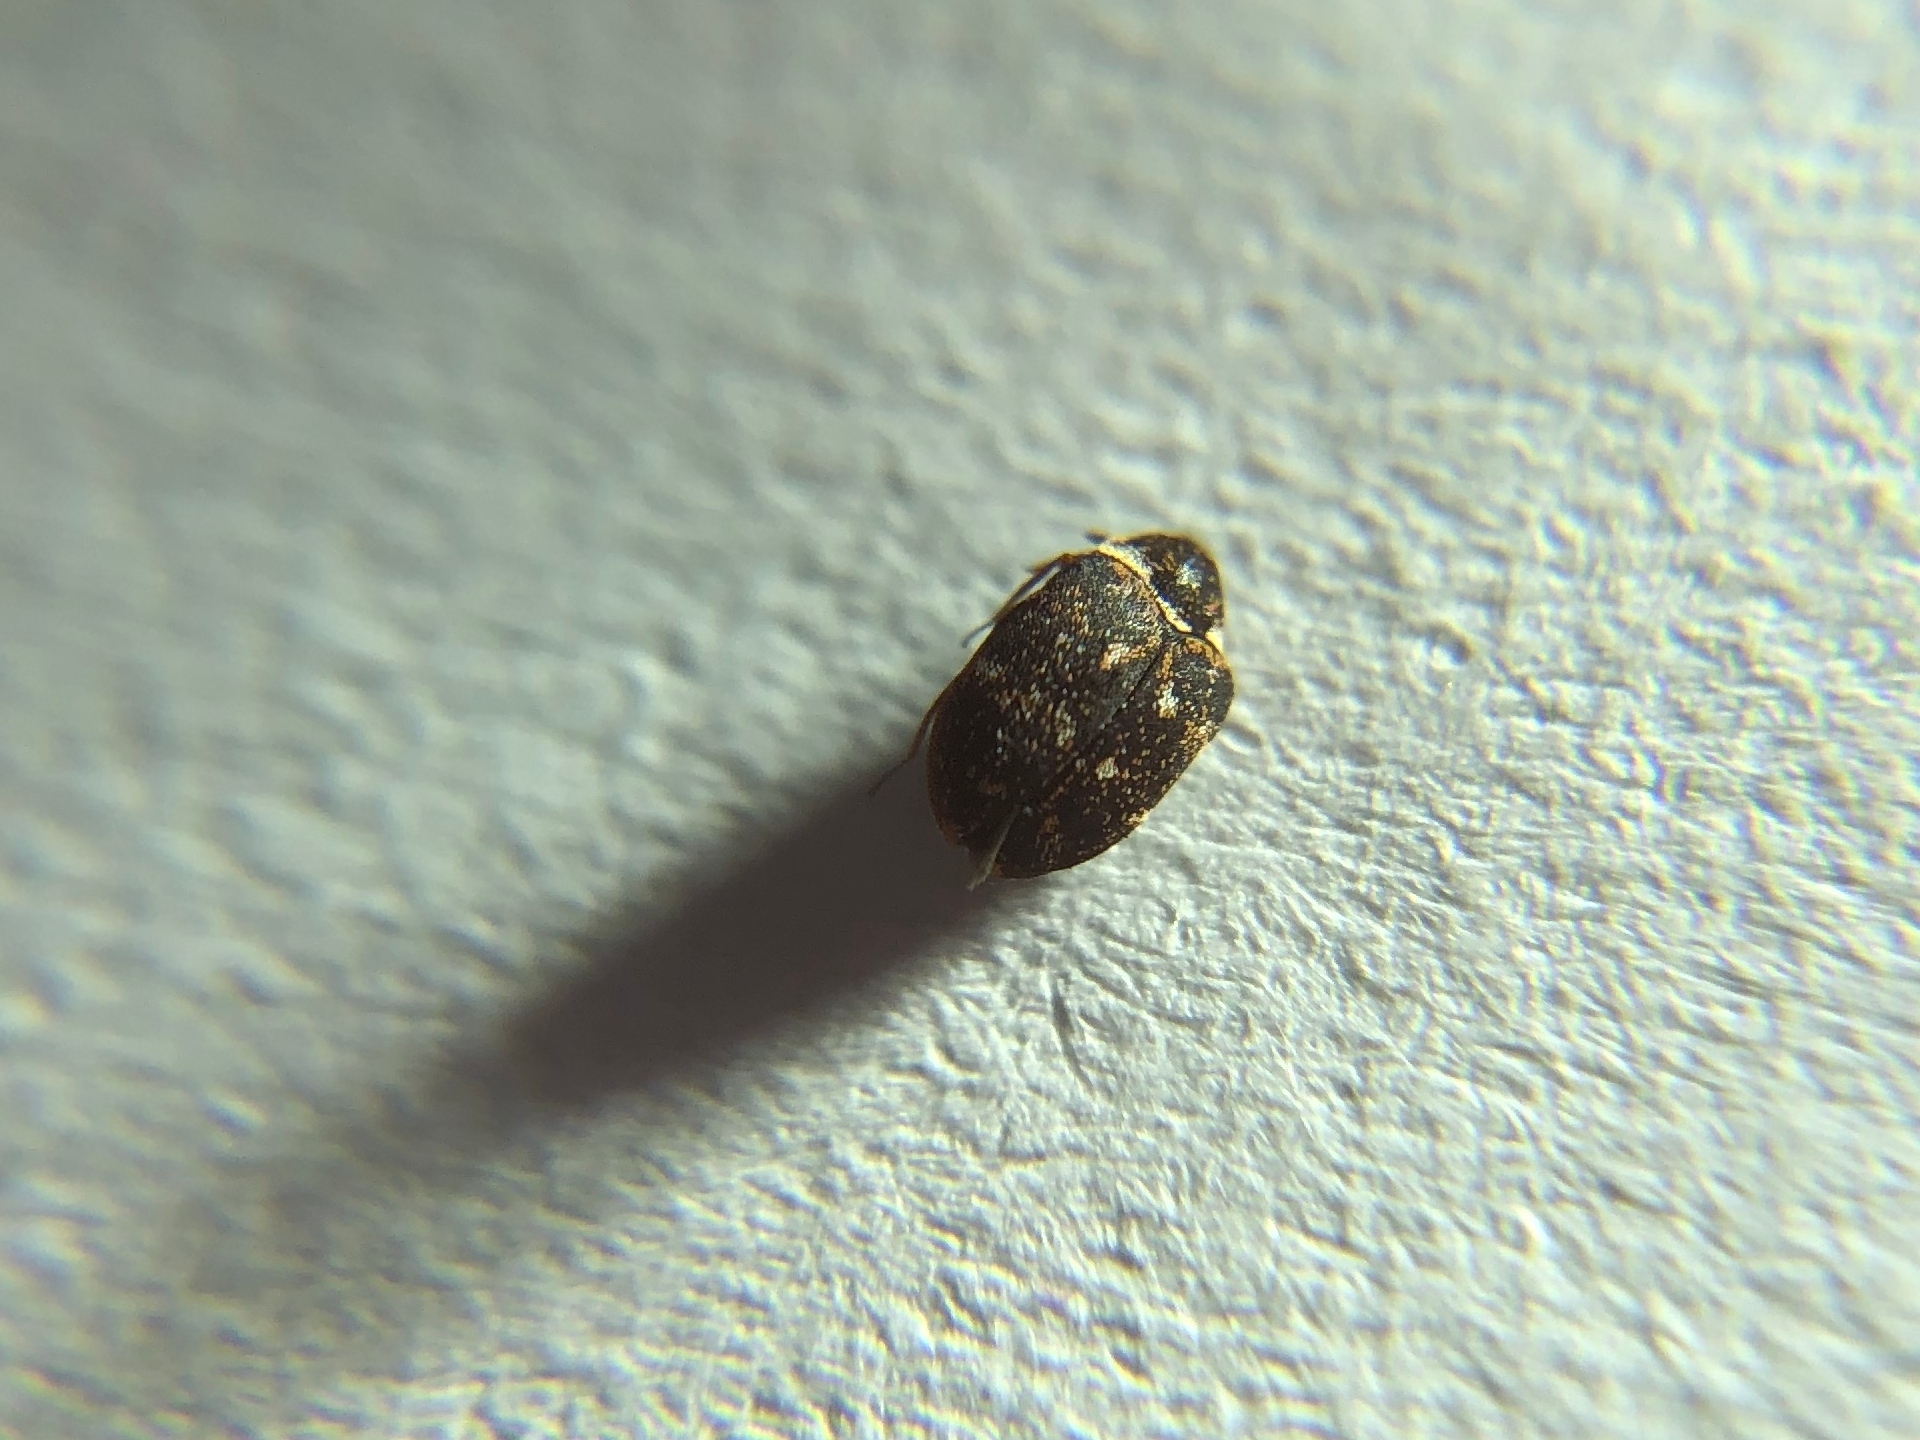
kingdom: Animalia
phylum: Arthropoda
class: Insecta
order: Coleoptera
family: Dermestidae
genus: Anthrenus
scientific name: Anthrenus museorum
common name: Museum beetle
